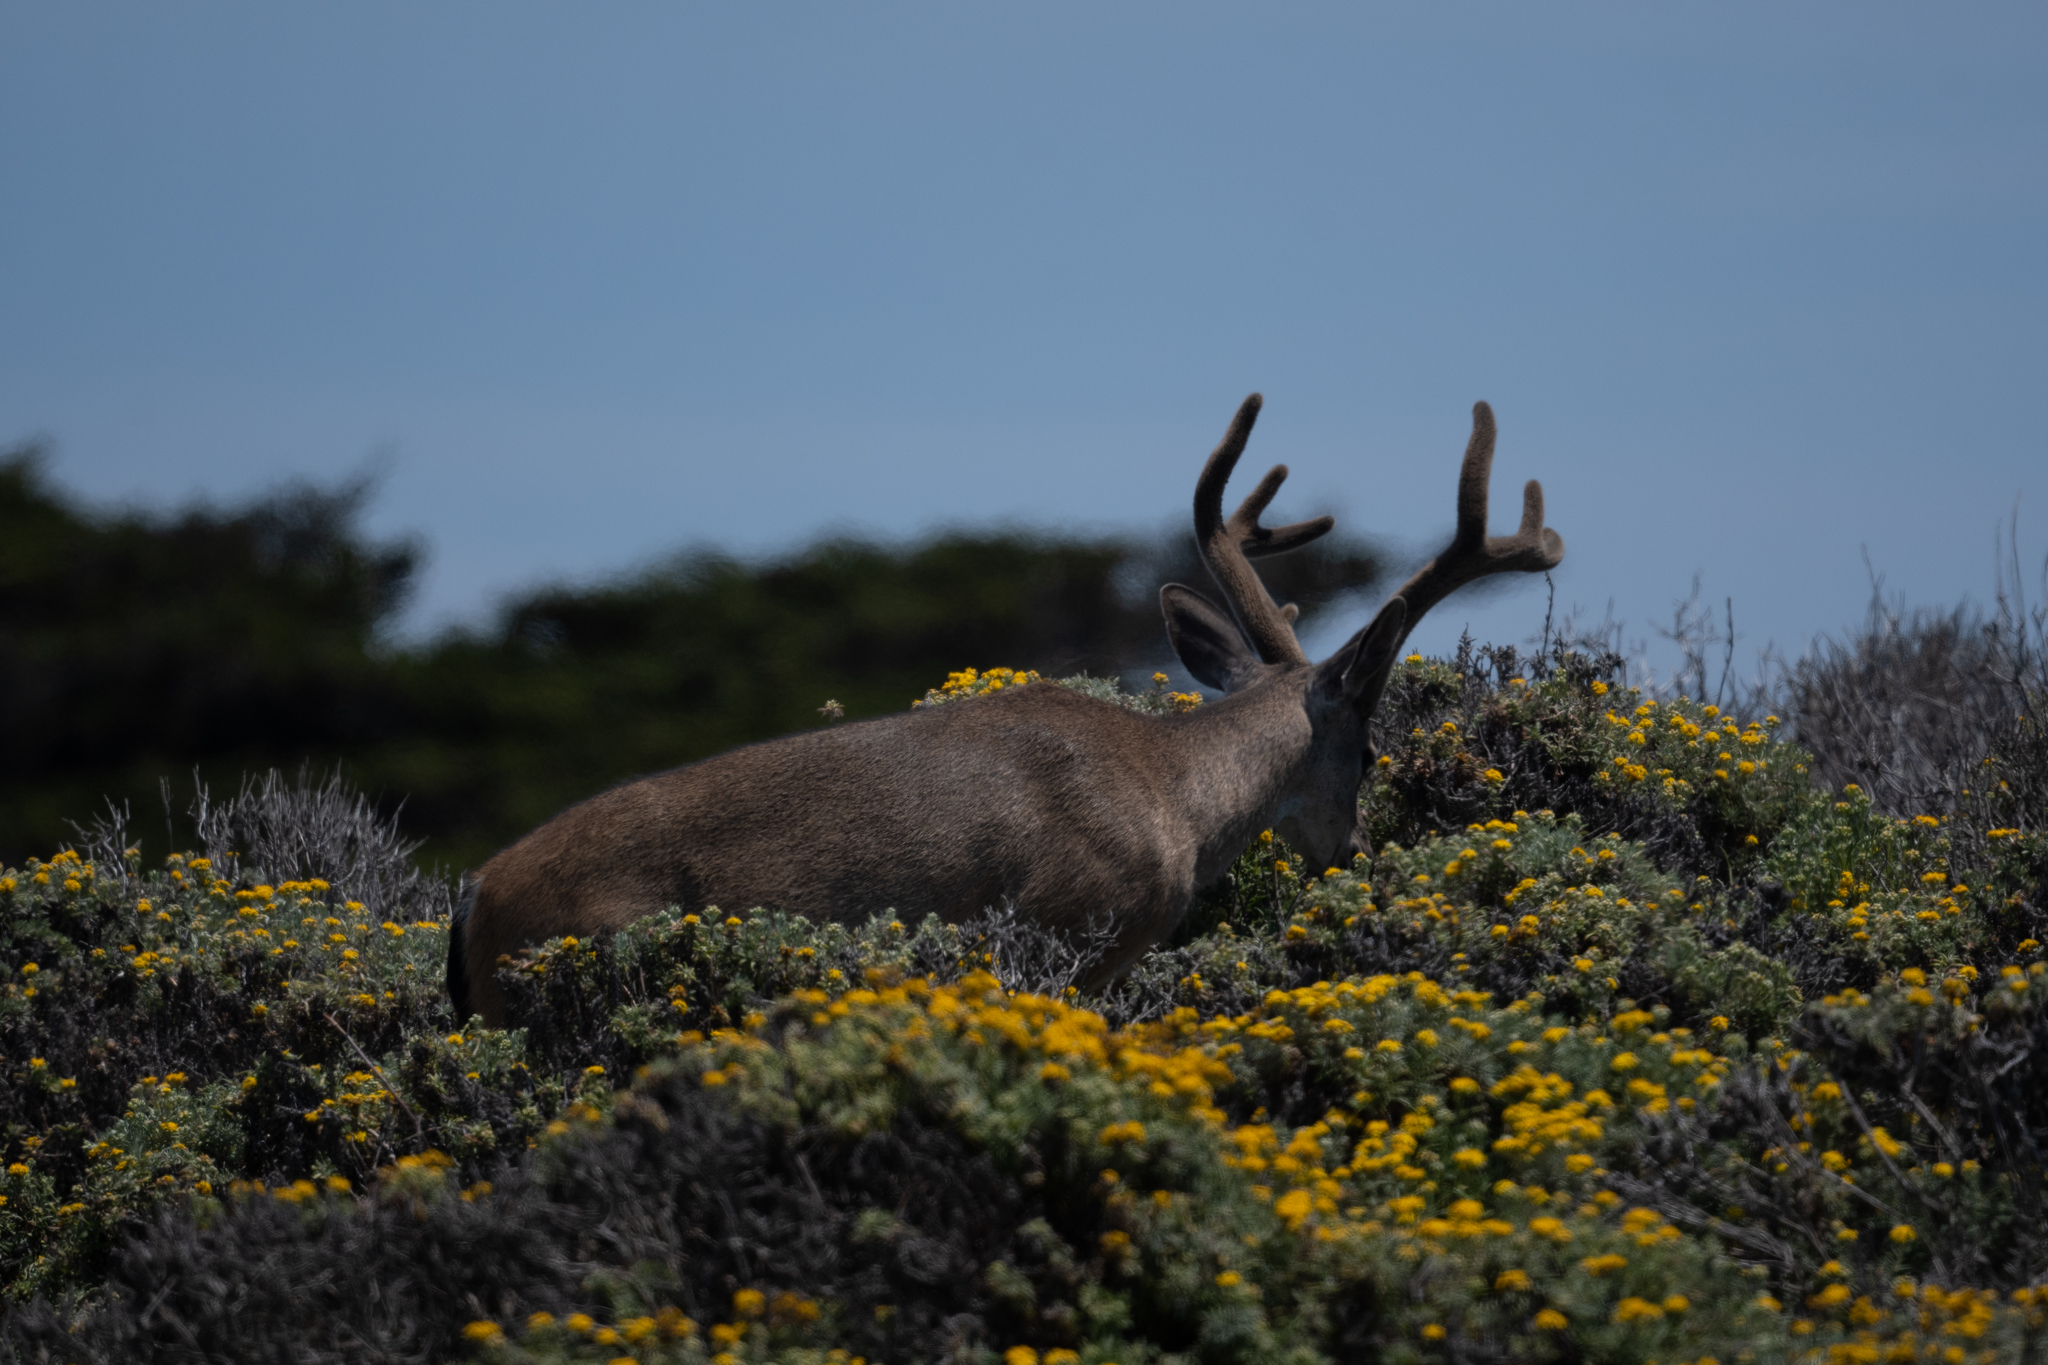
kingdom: Animalia
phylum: Chordata
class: Mammalia
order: Artiodactyla
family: Cervidae
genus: Odocoileus
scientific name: Odocoileus hemionus
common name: Mule deer
